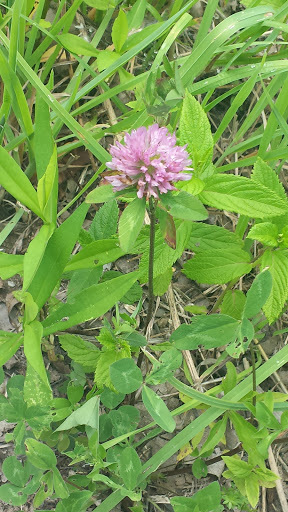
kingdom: Plantae
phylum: Tracheophyta
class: Magnoliopsida
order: Fabales
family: Fabaceae
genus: Trifolium
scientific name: Trifolium pratense
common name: Red clover
